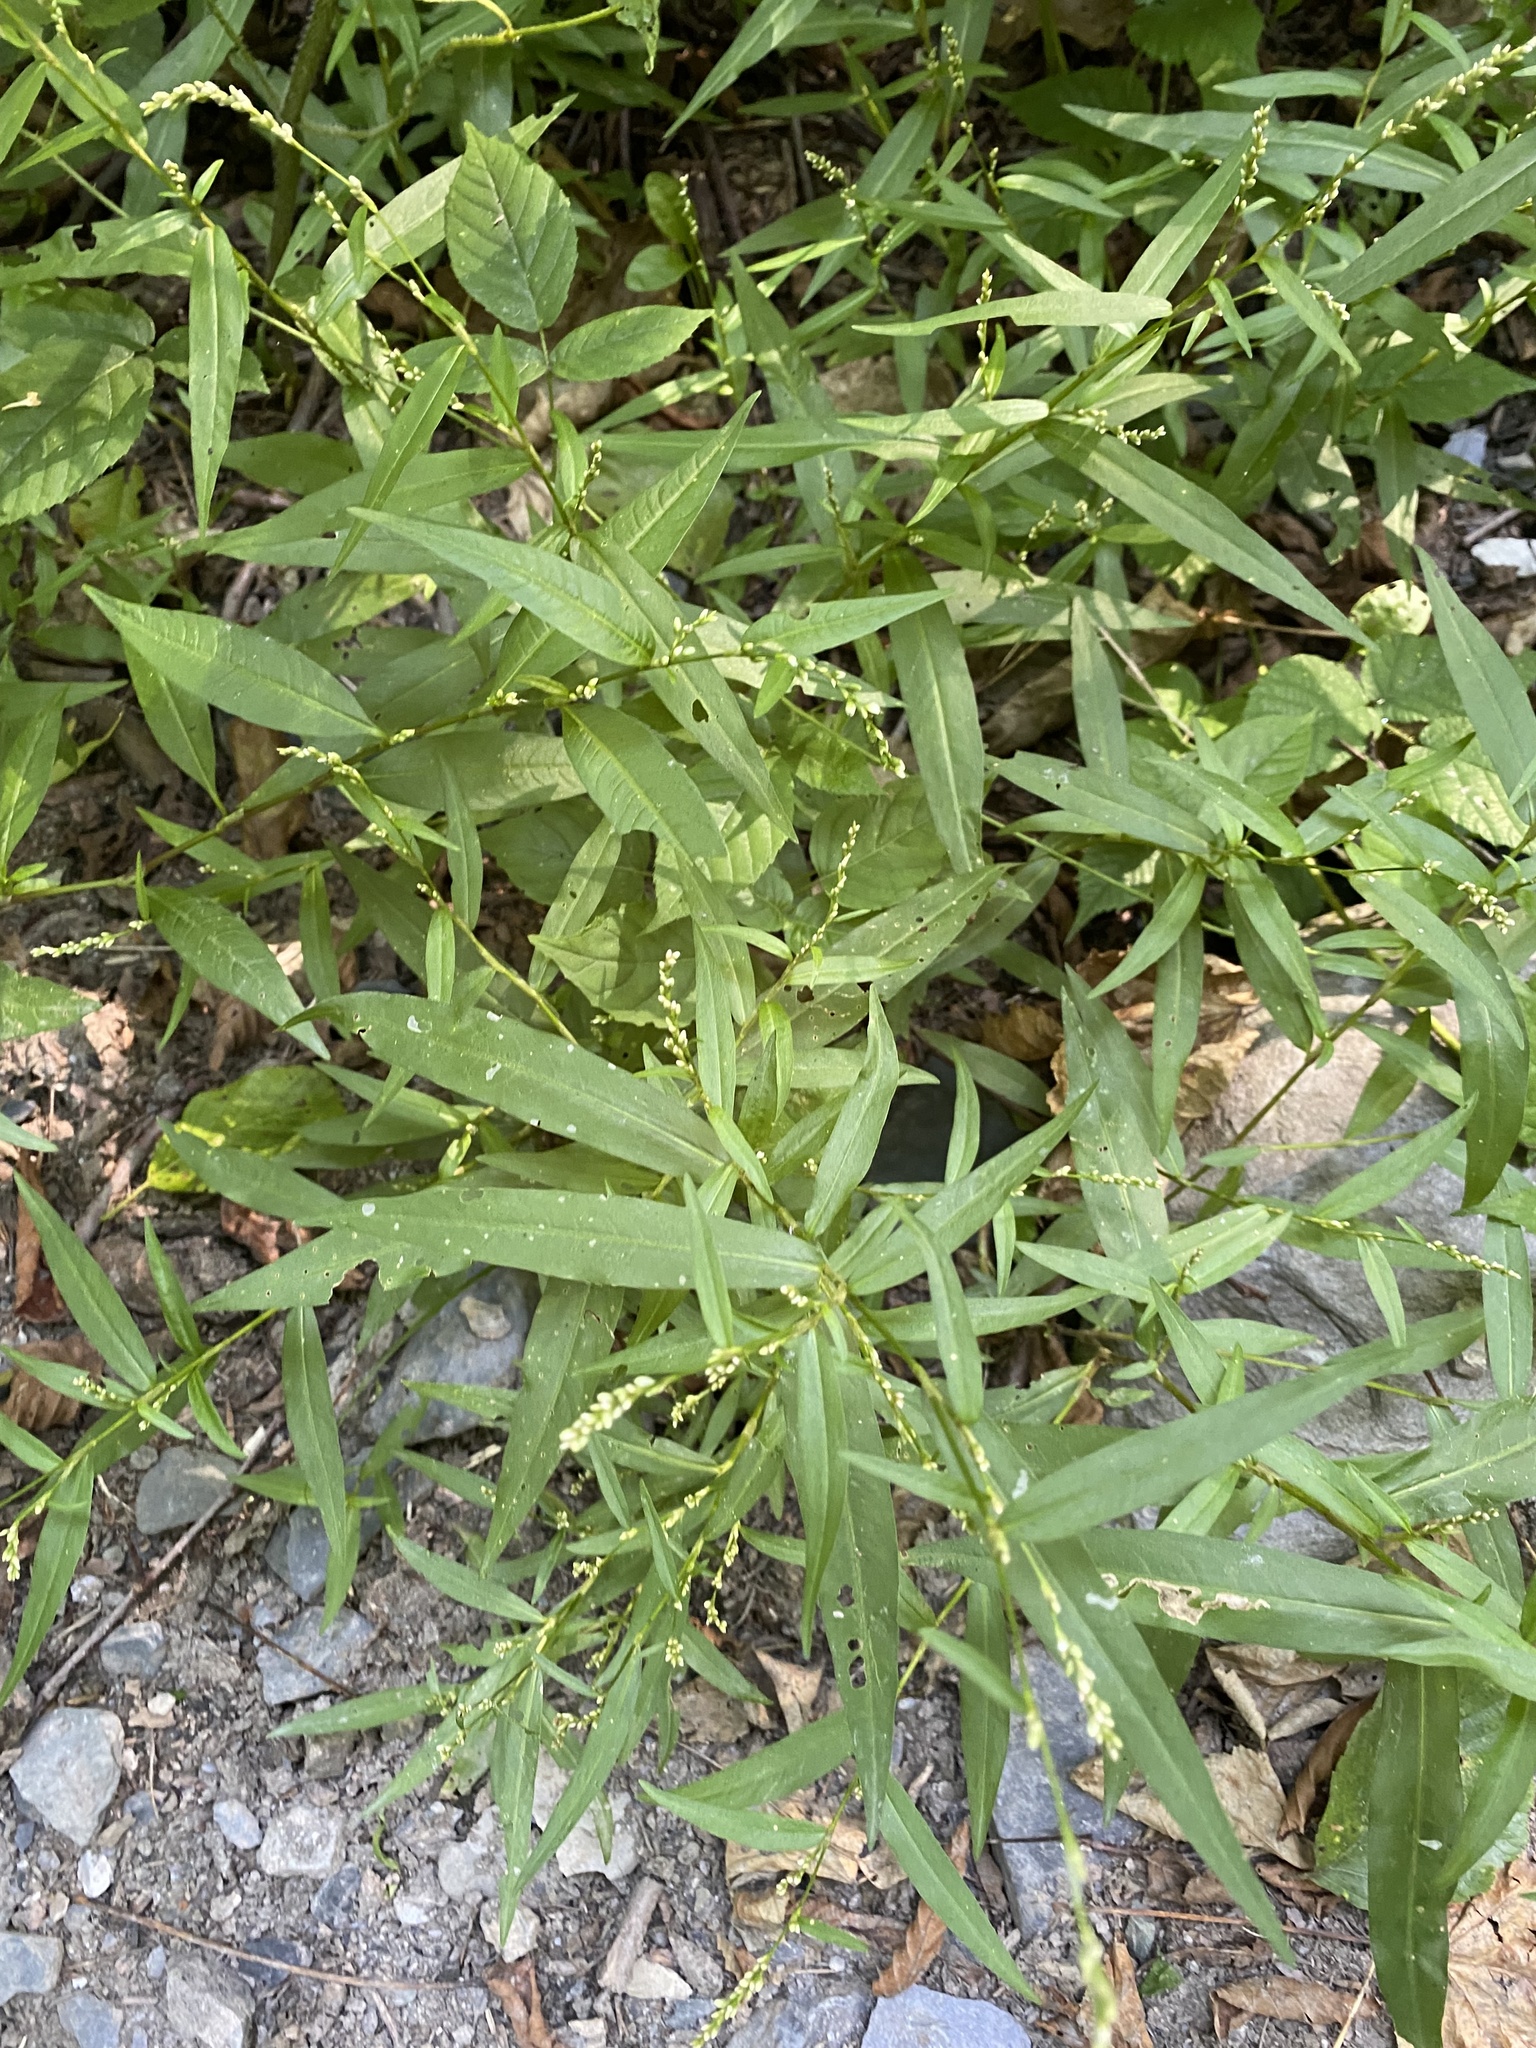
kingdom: Plantae
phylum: Tracheophyta
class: Magnoliopsida
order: Caryophyllales
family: Polygonaceae
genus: Persicaria
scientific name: Persicaria hydropiper
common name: Water-pepper
